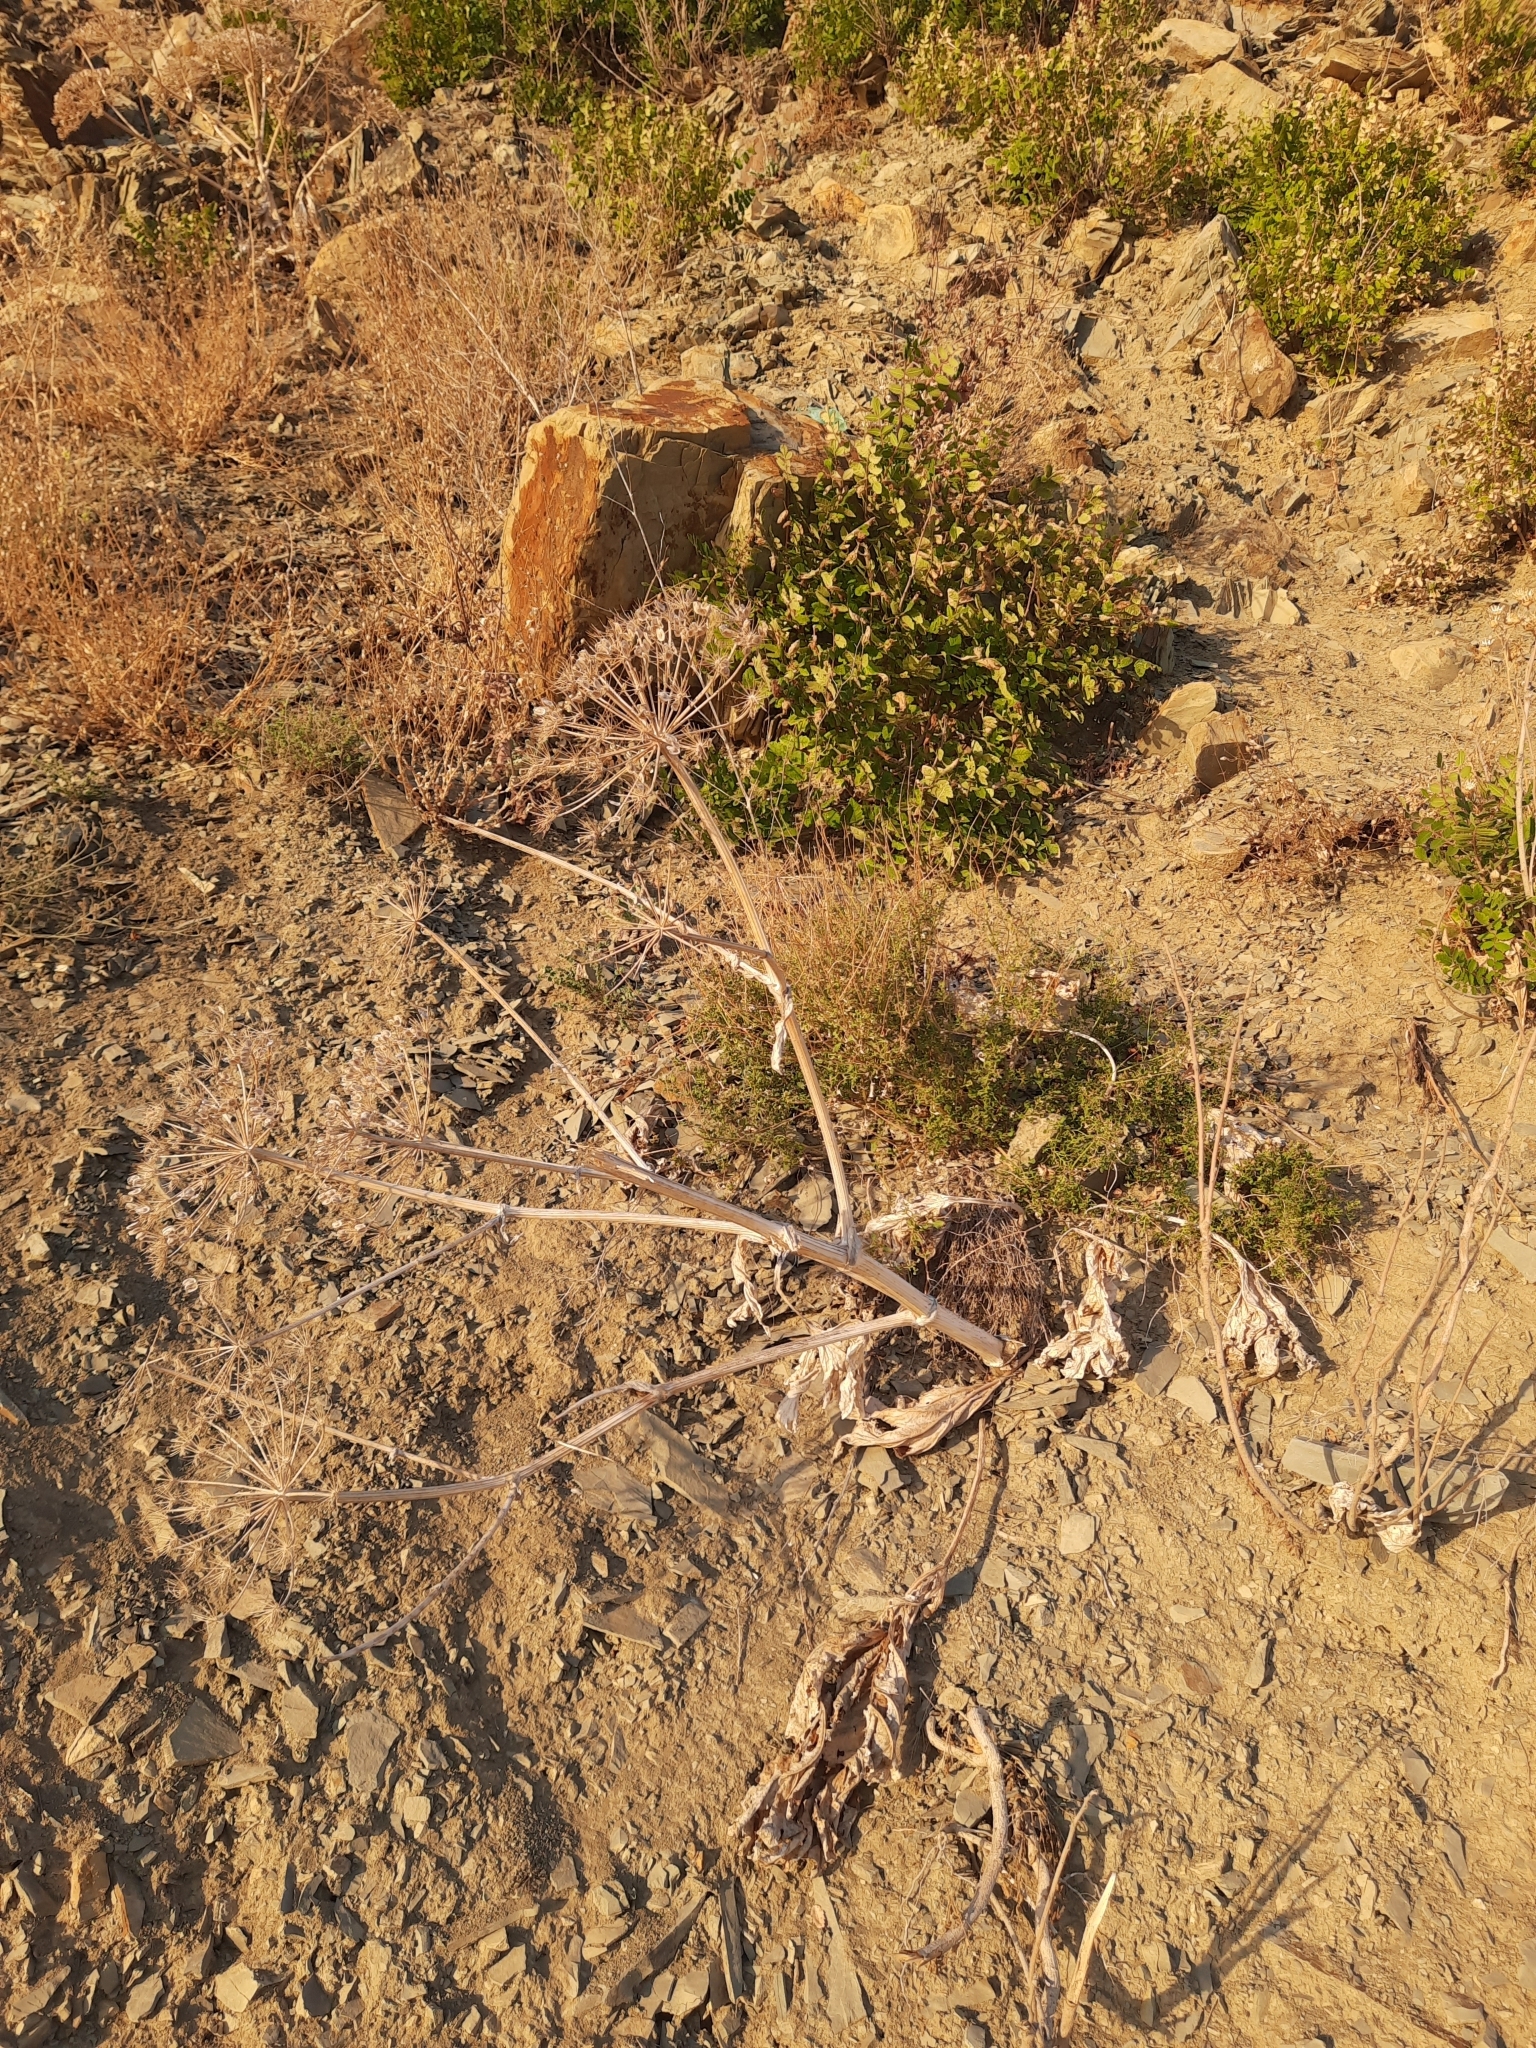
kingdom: Plantae
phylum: Tracheophyta
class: Magnoliopsida
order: Apiales
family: Apiaceae
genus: Heracleum
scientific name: Heracleum stevenii
